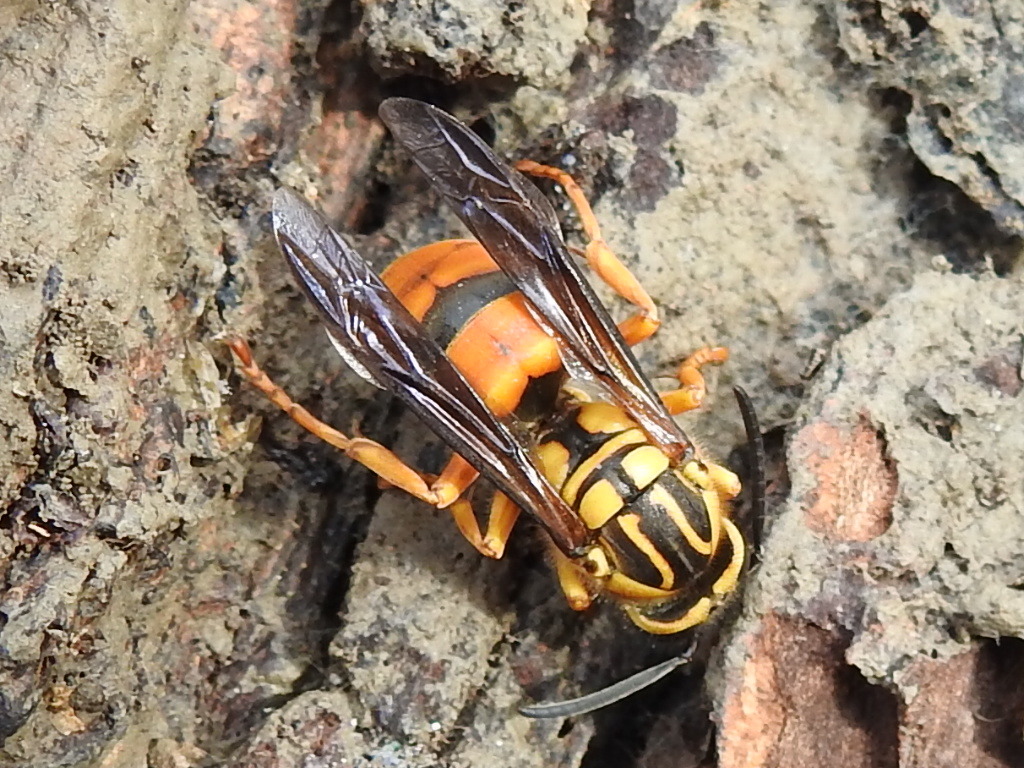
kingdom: Animalia
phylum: Arthropoda
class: Insecta
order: Hymenoptera
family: Vespidae
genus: Vespula
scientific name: Vespula squamosa
